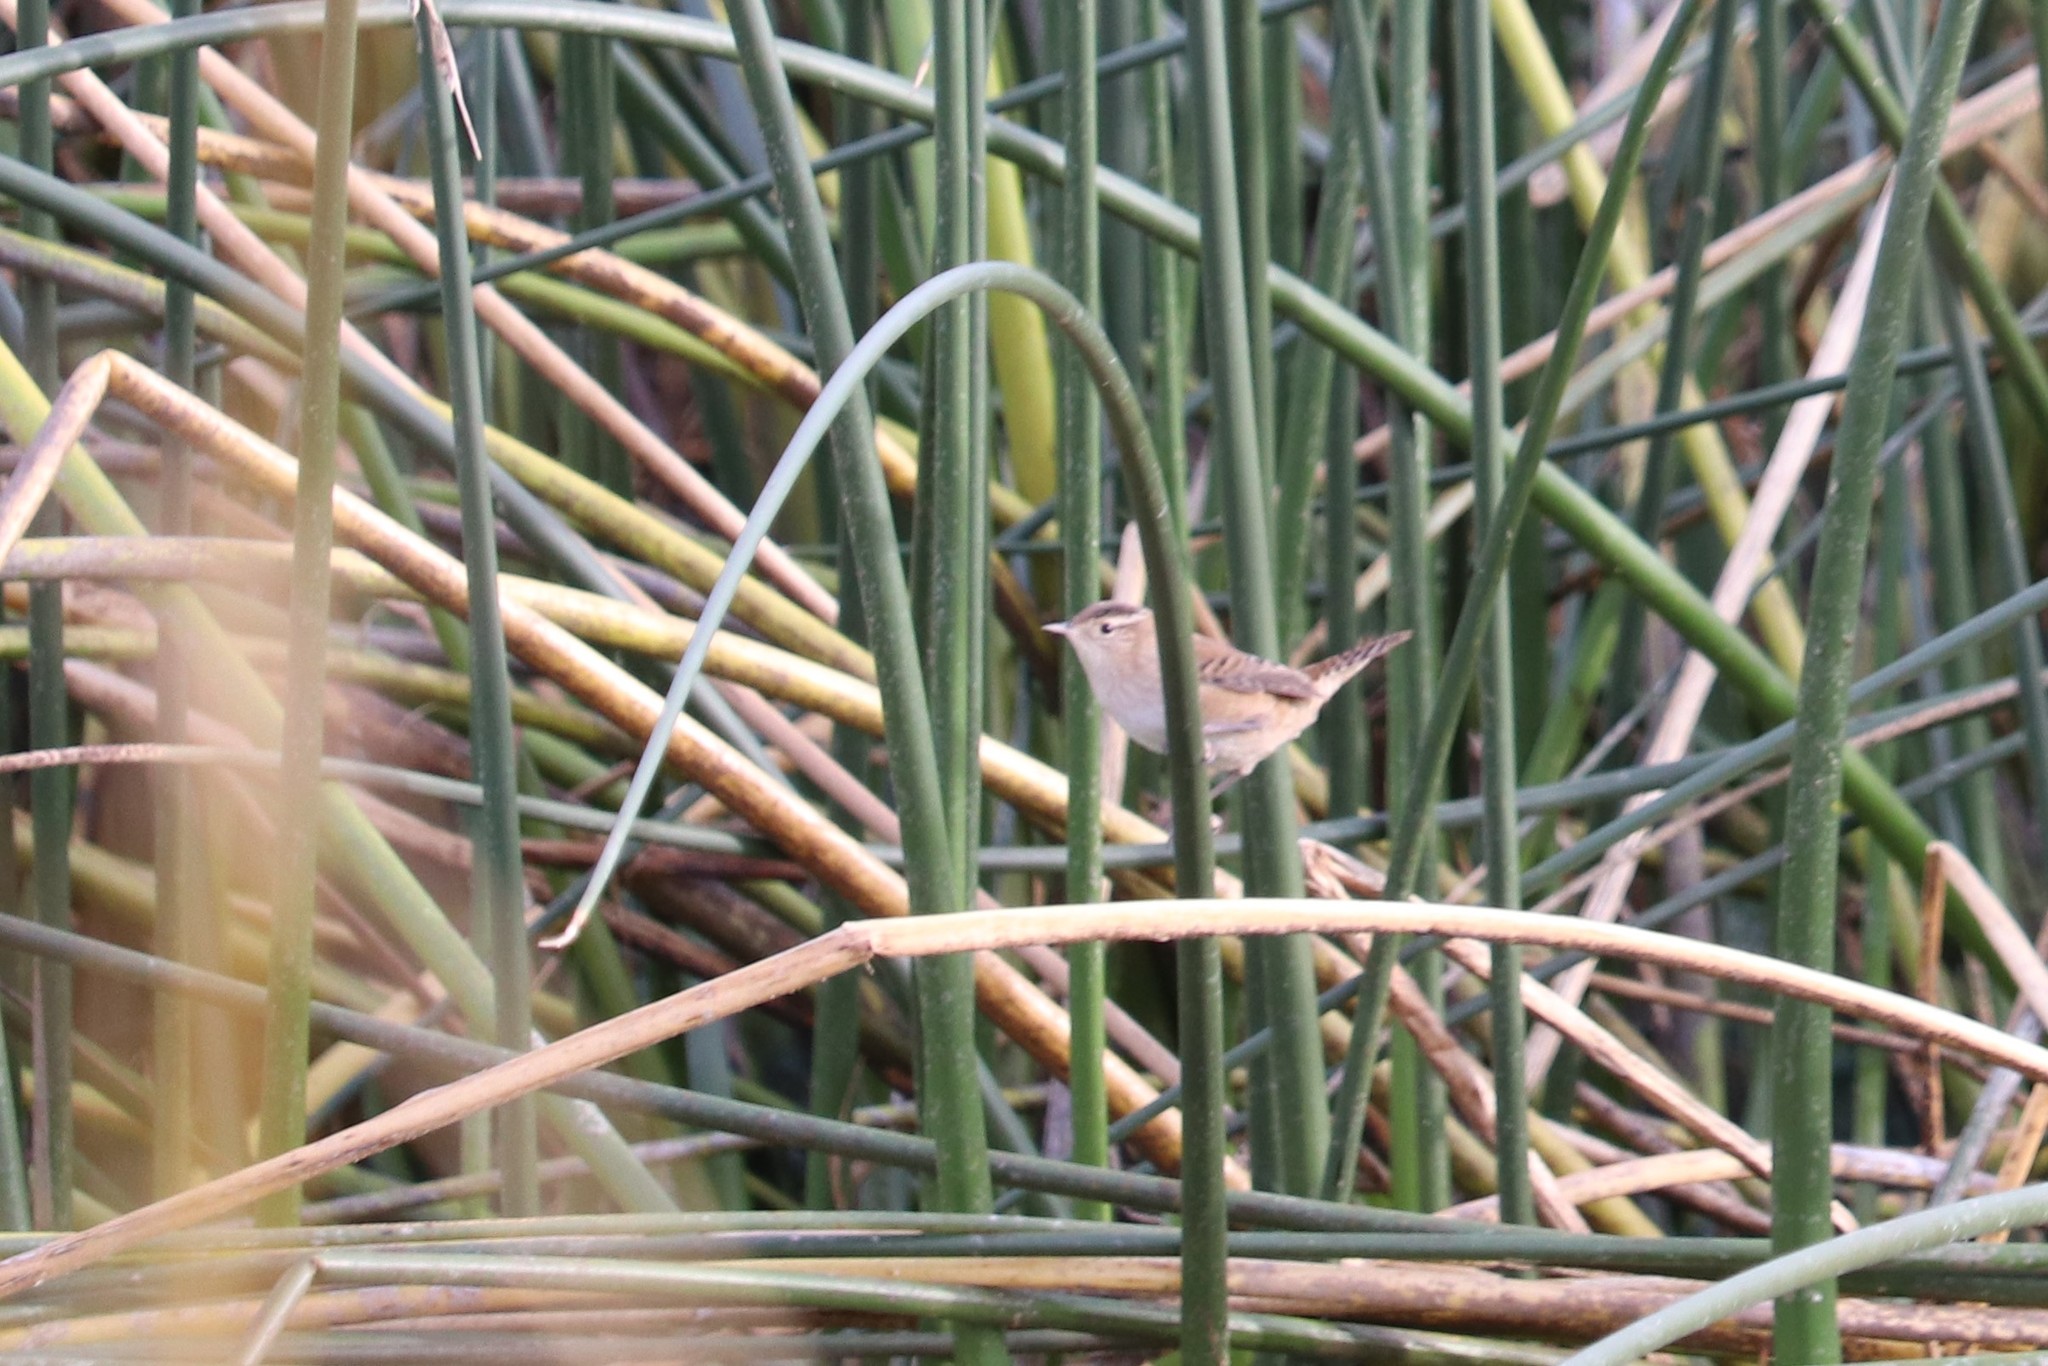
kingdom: Animalia
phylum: Chordata
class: Aves
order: Passeriformes
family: Troglodytidae
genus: Cistothorus
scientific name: Cistothorus palustris
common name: Marsh wren
